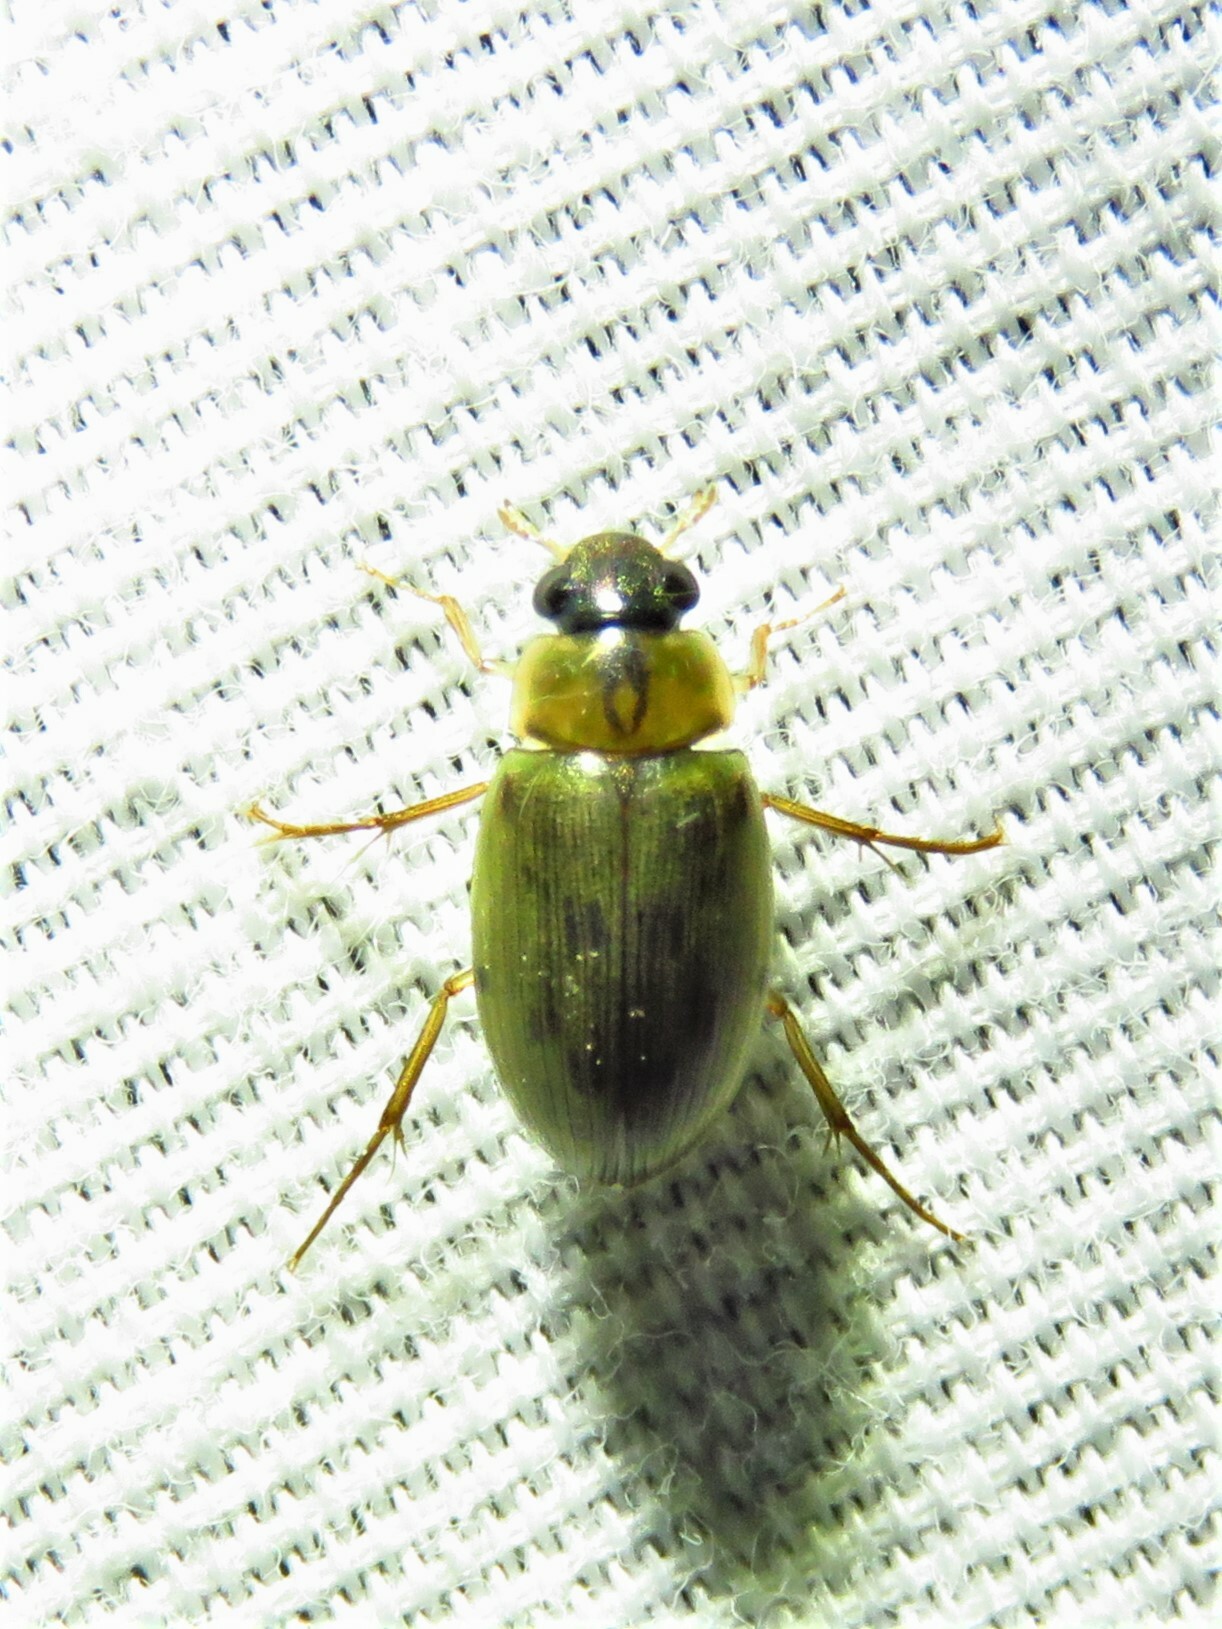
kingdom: Animalia
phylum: Arthropoda
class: Insecta
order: Coleoptera
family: Hydrophilidae
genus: Berosus
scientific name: Berosus
